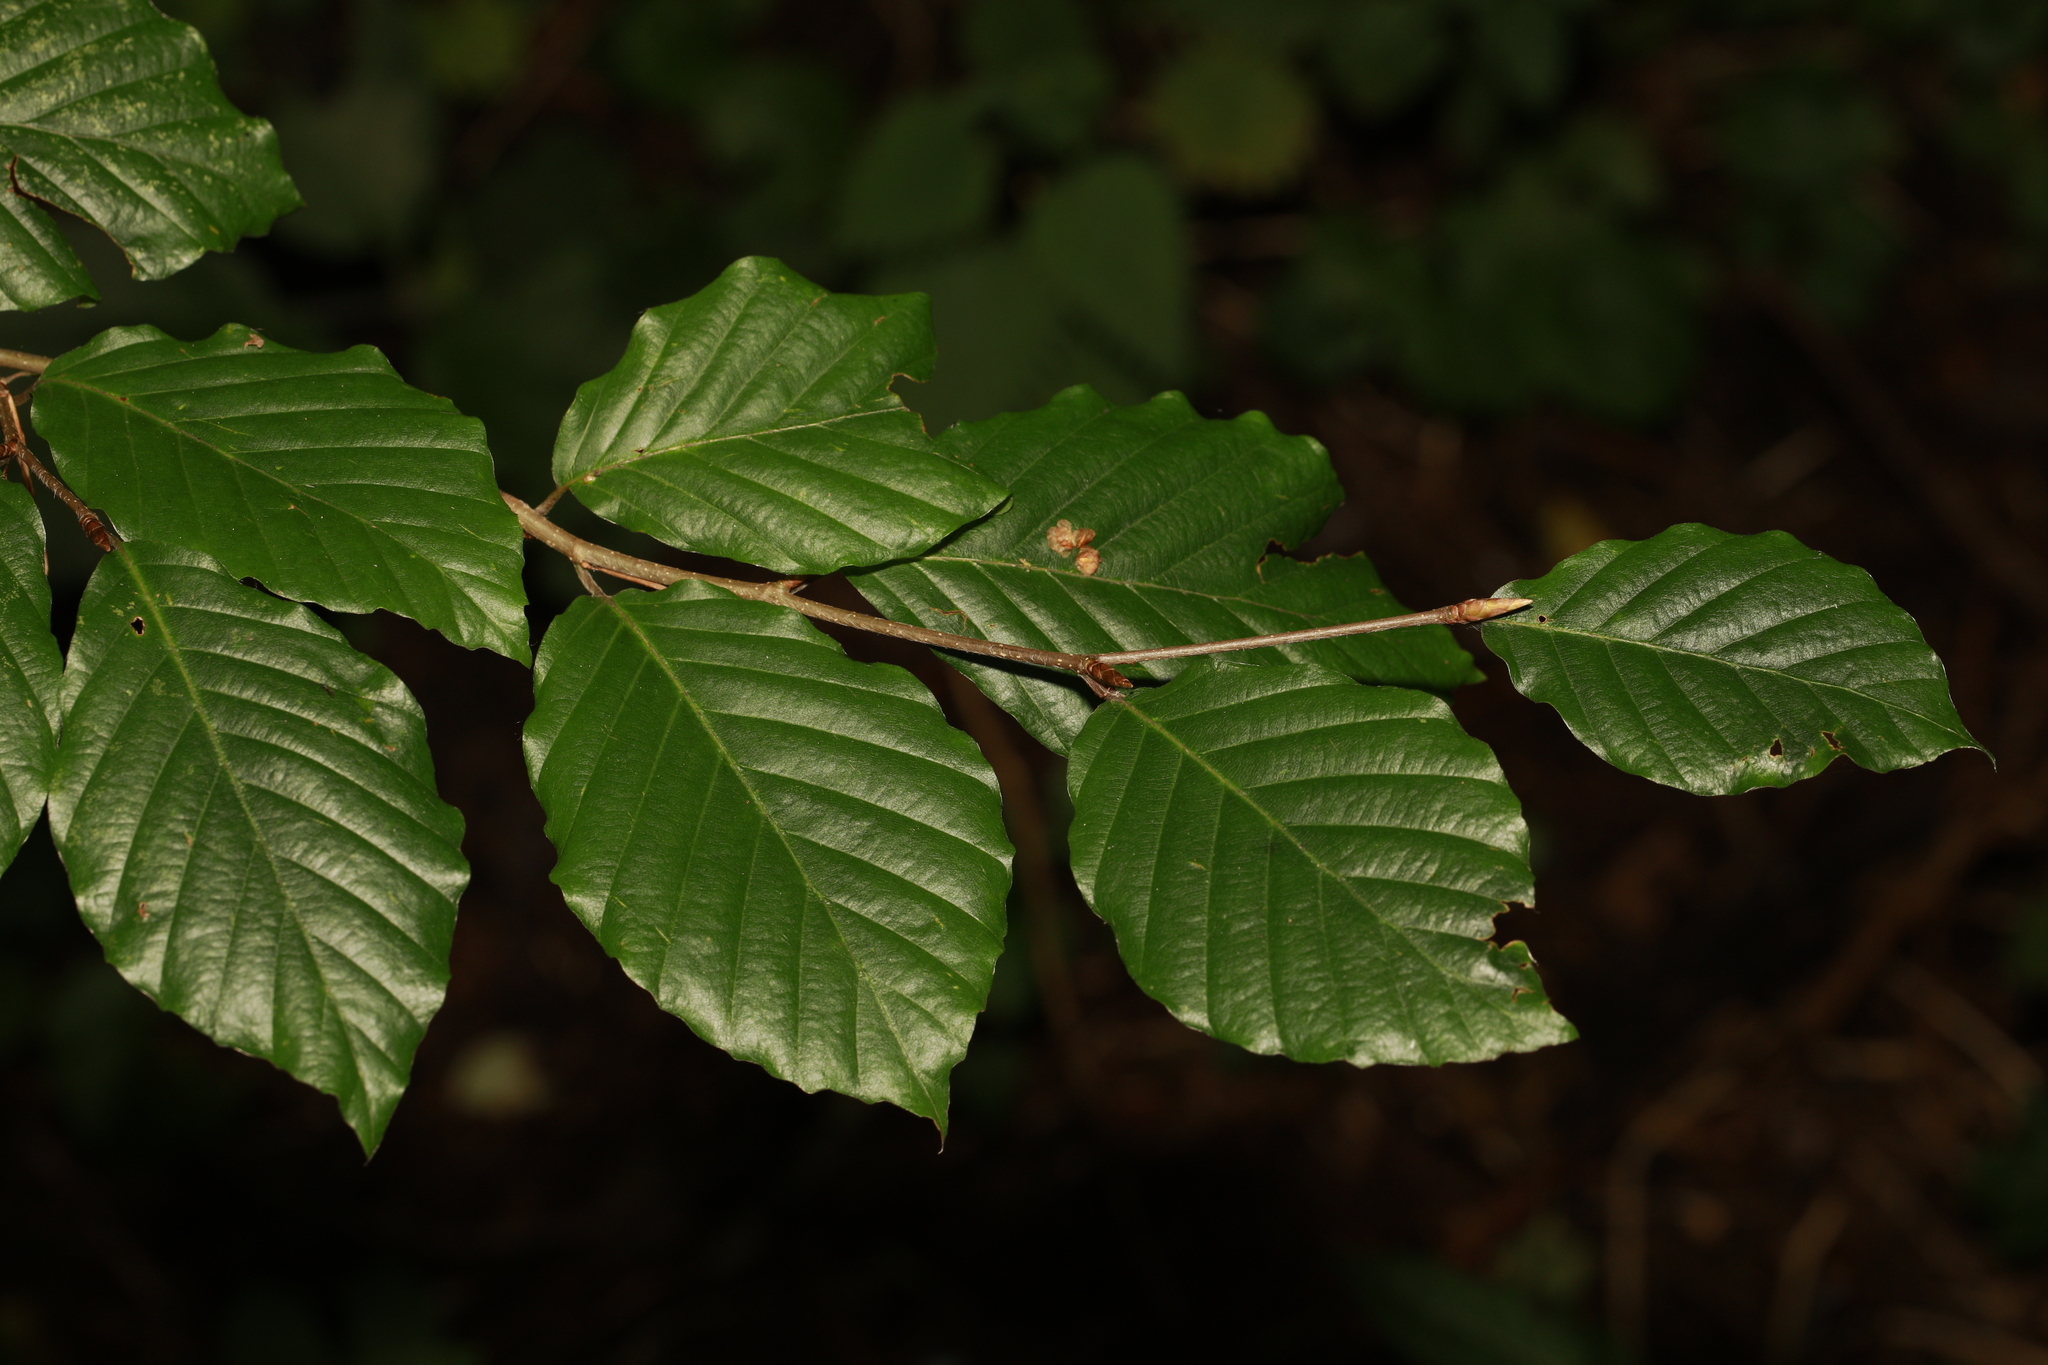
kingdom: Plantae
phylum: Tracheophyta
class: Magnoliopsida
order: Fagales
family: Fagaceae
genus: Fagus
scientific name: Fagus sylvatica
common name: Beech
